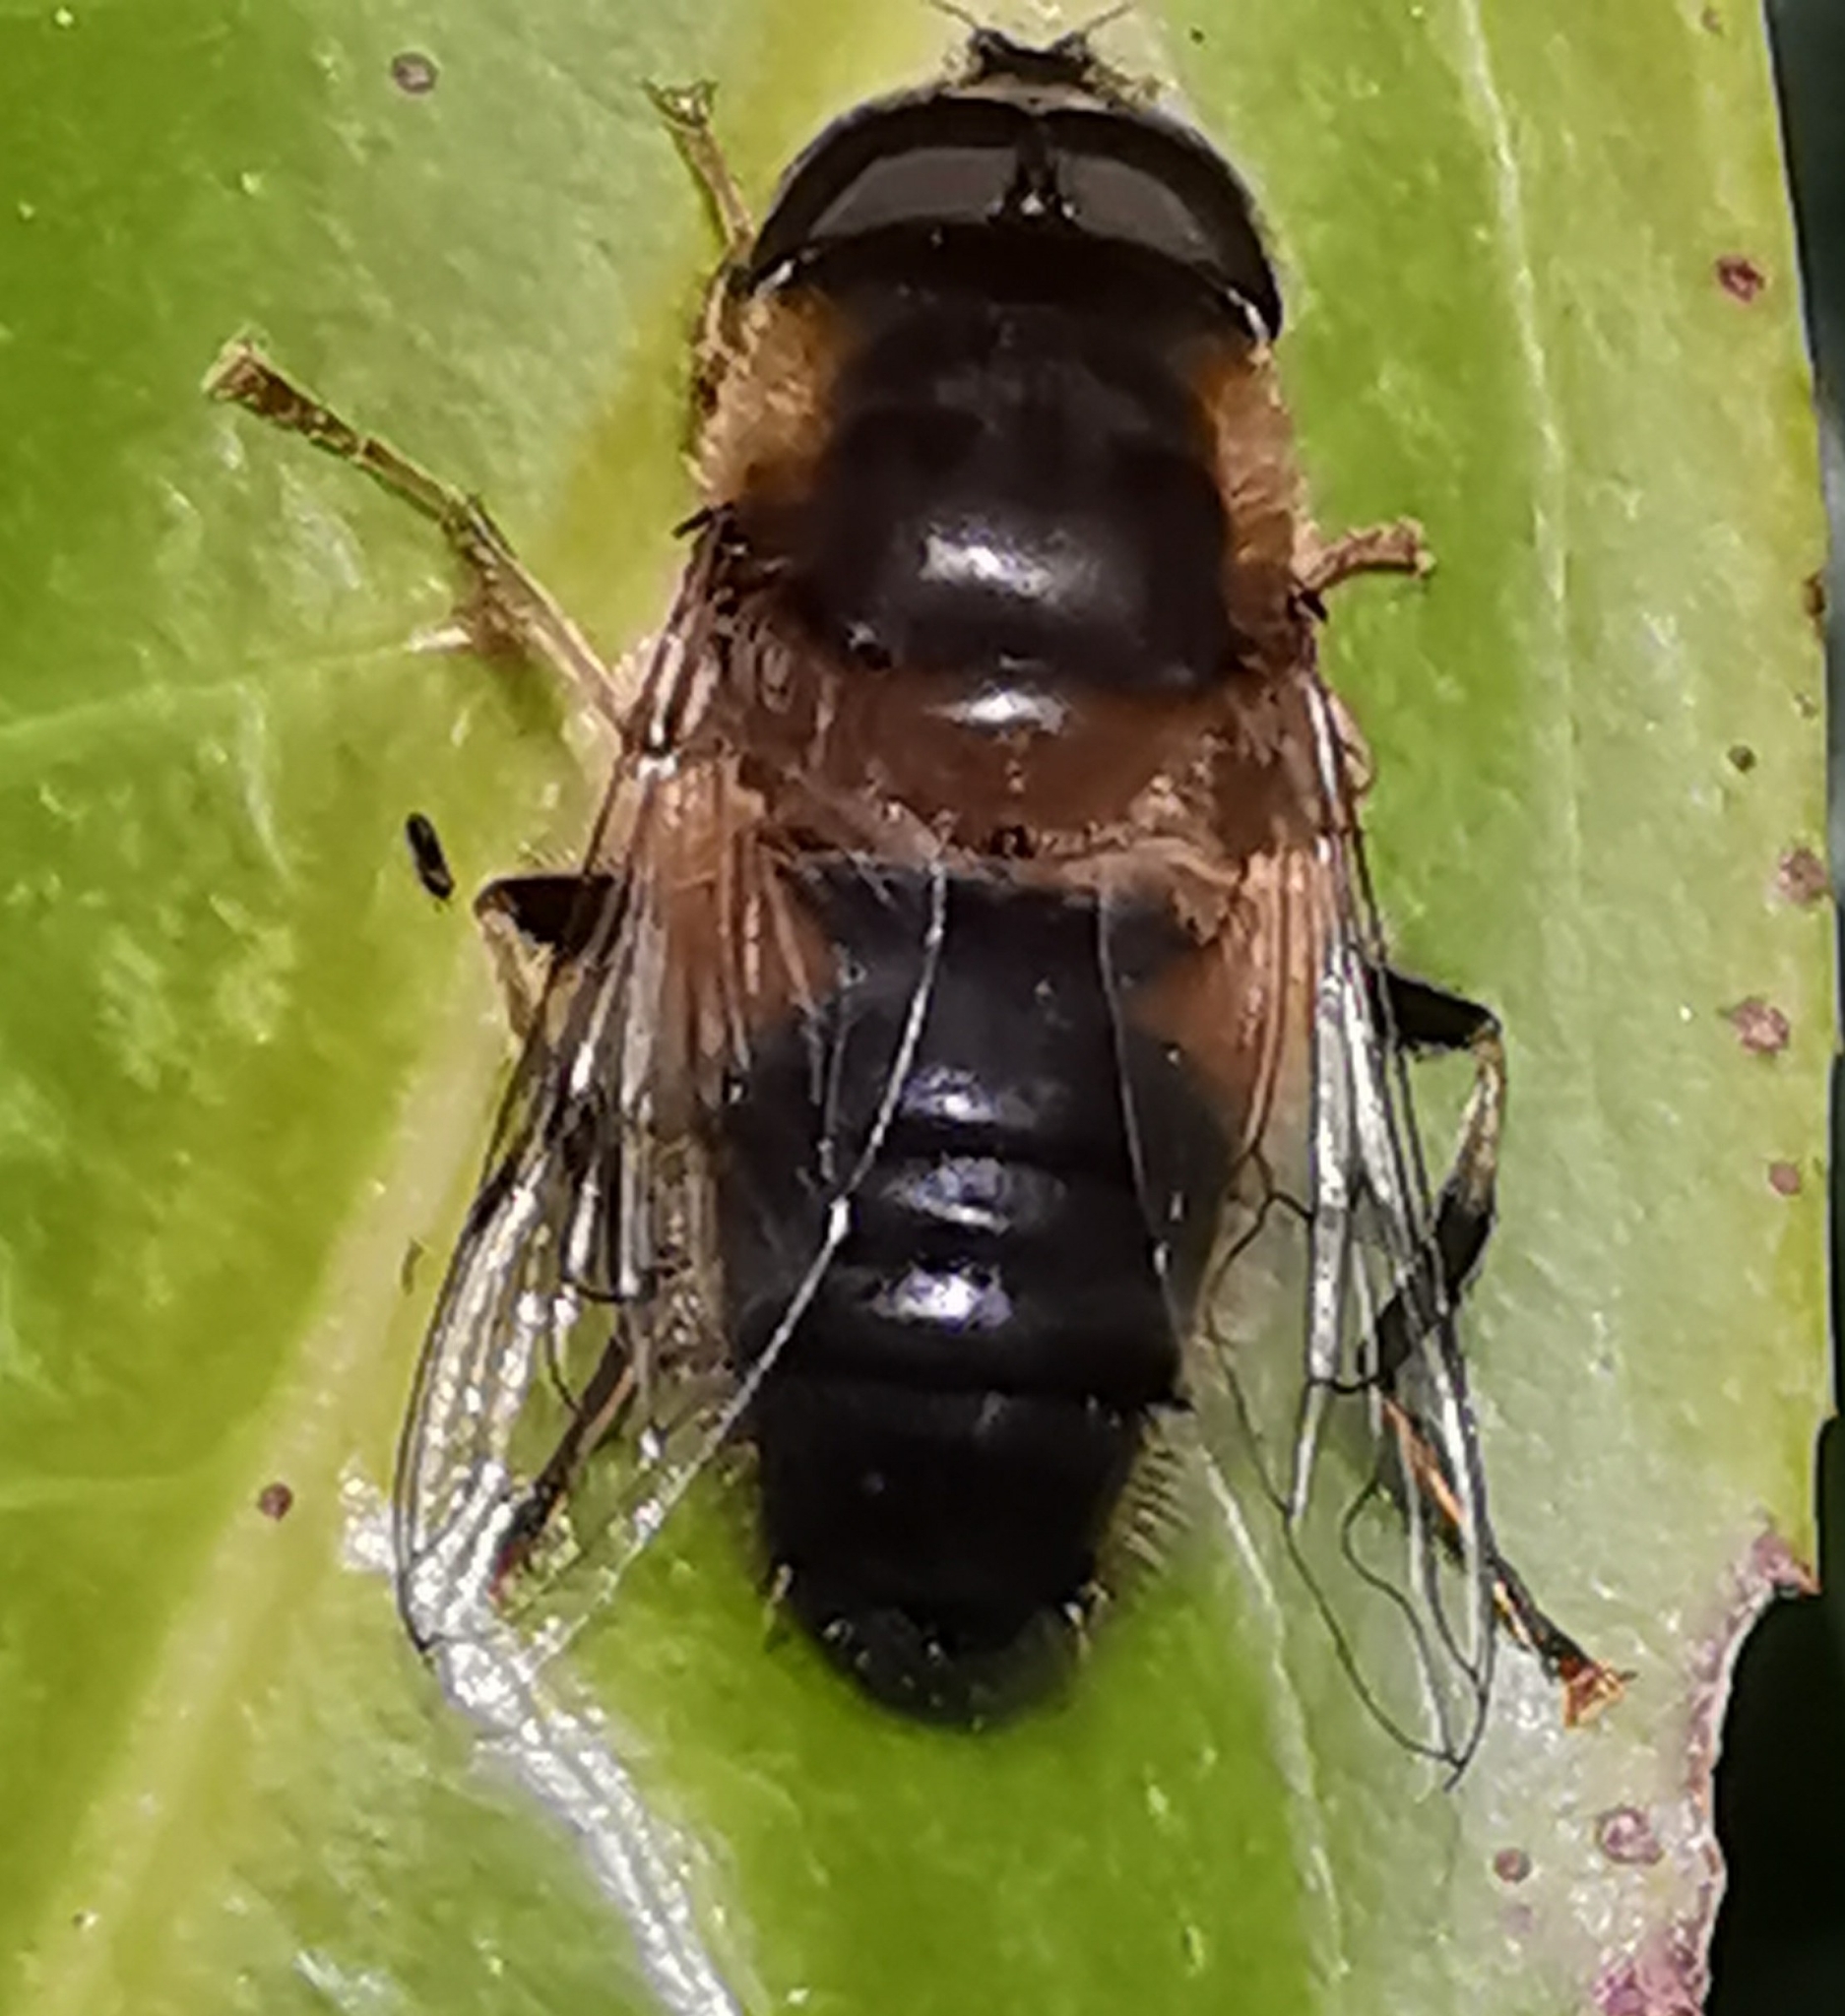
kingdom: Animalia
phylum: Arthropoda
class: Insecta
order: Diptera
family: Syrphidae
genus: Eristalis
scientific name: Eristalis pertinax
